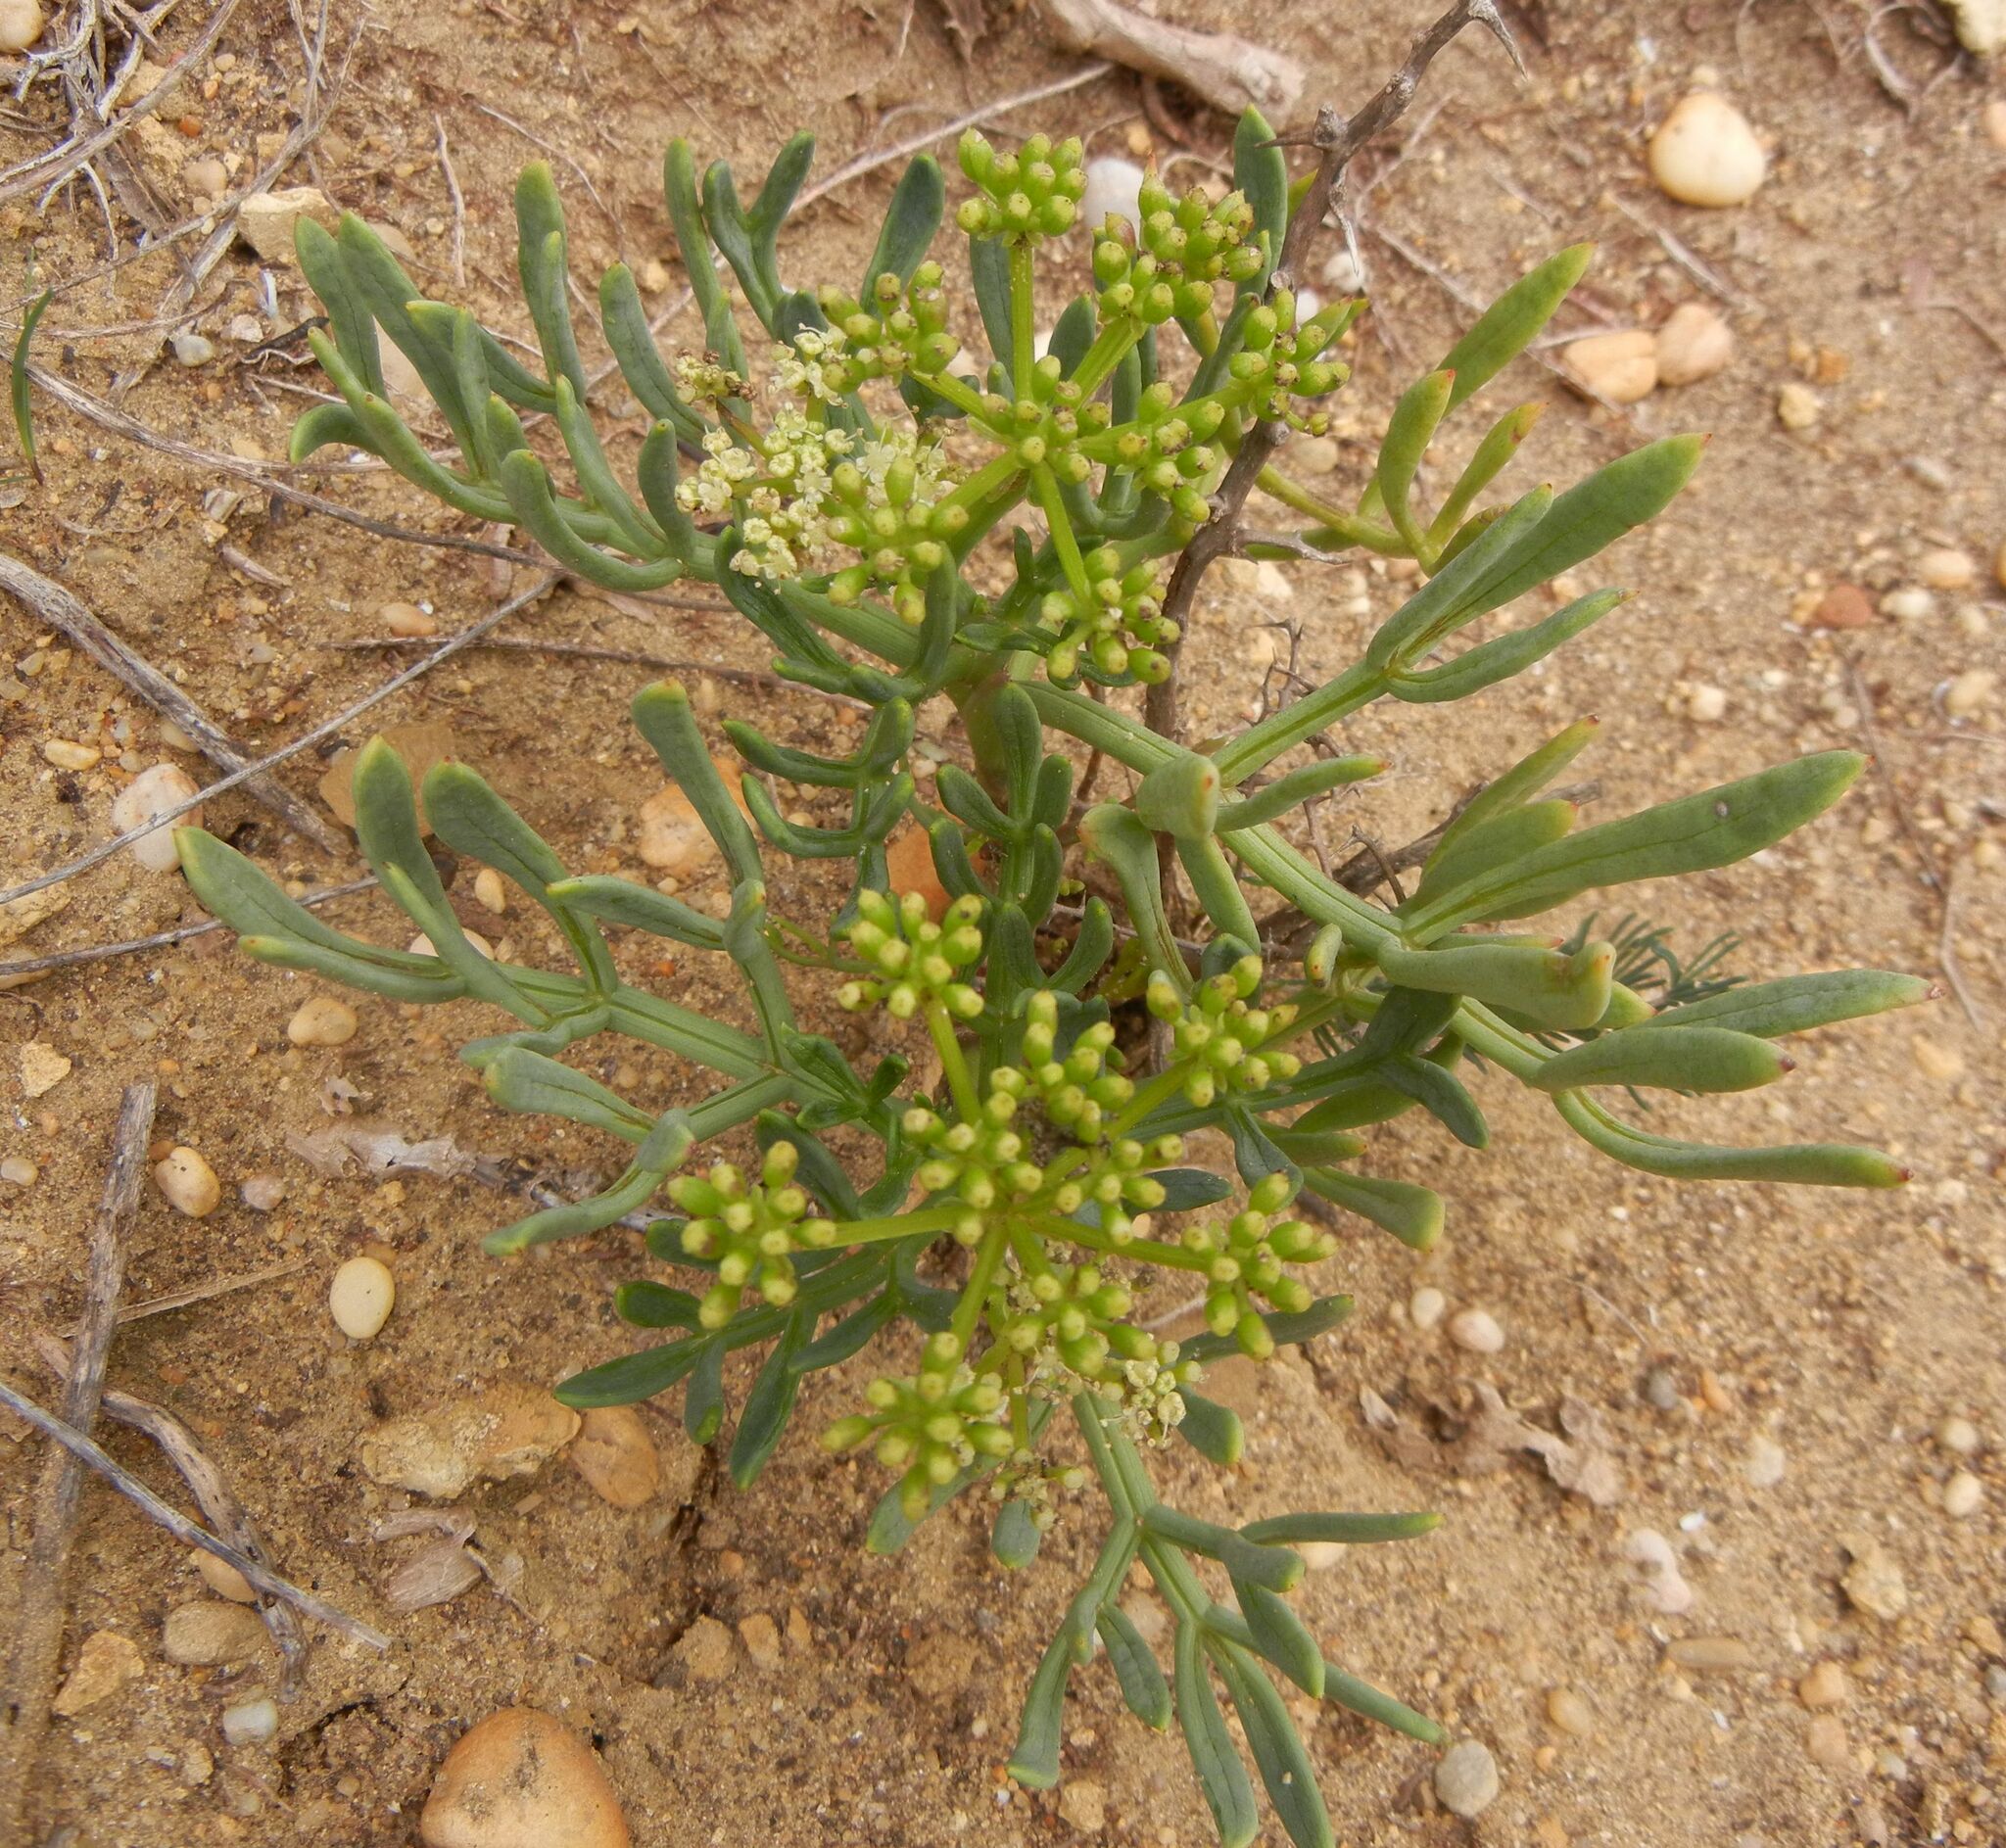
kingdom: Plantae
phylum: Tracheophyta
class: Magnoliopsida
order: Apiales
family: Apiaceae
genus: Crithmum
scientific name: Crithmum maritimum
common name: Rock samphire
